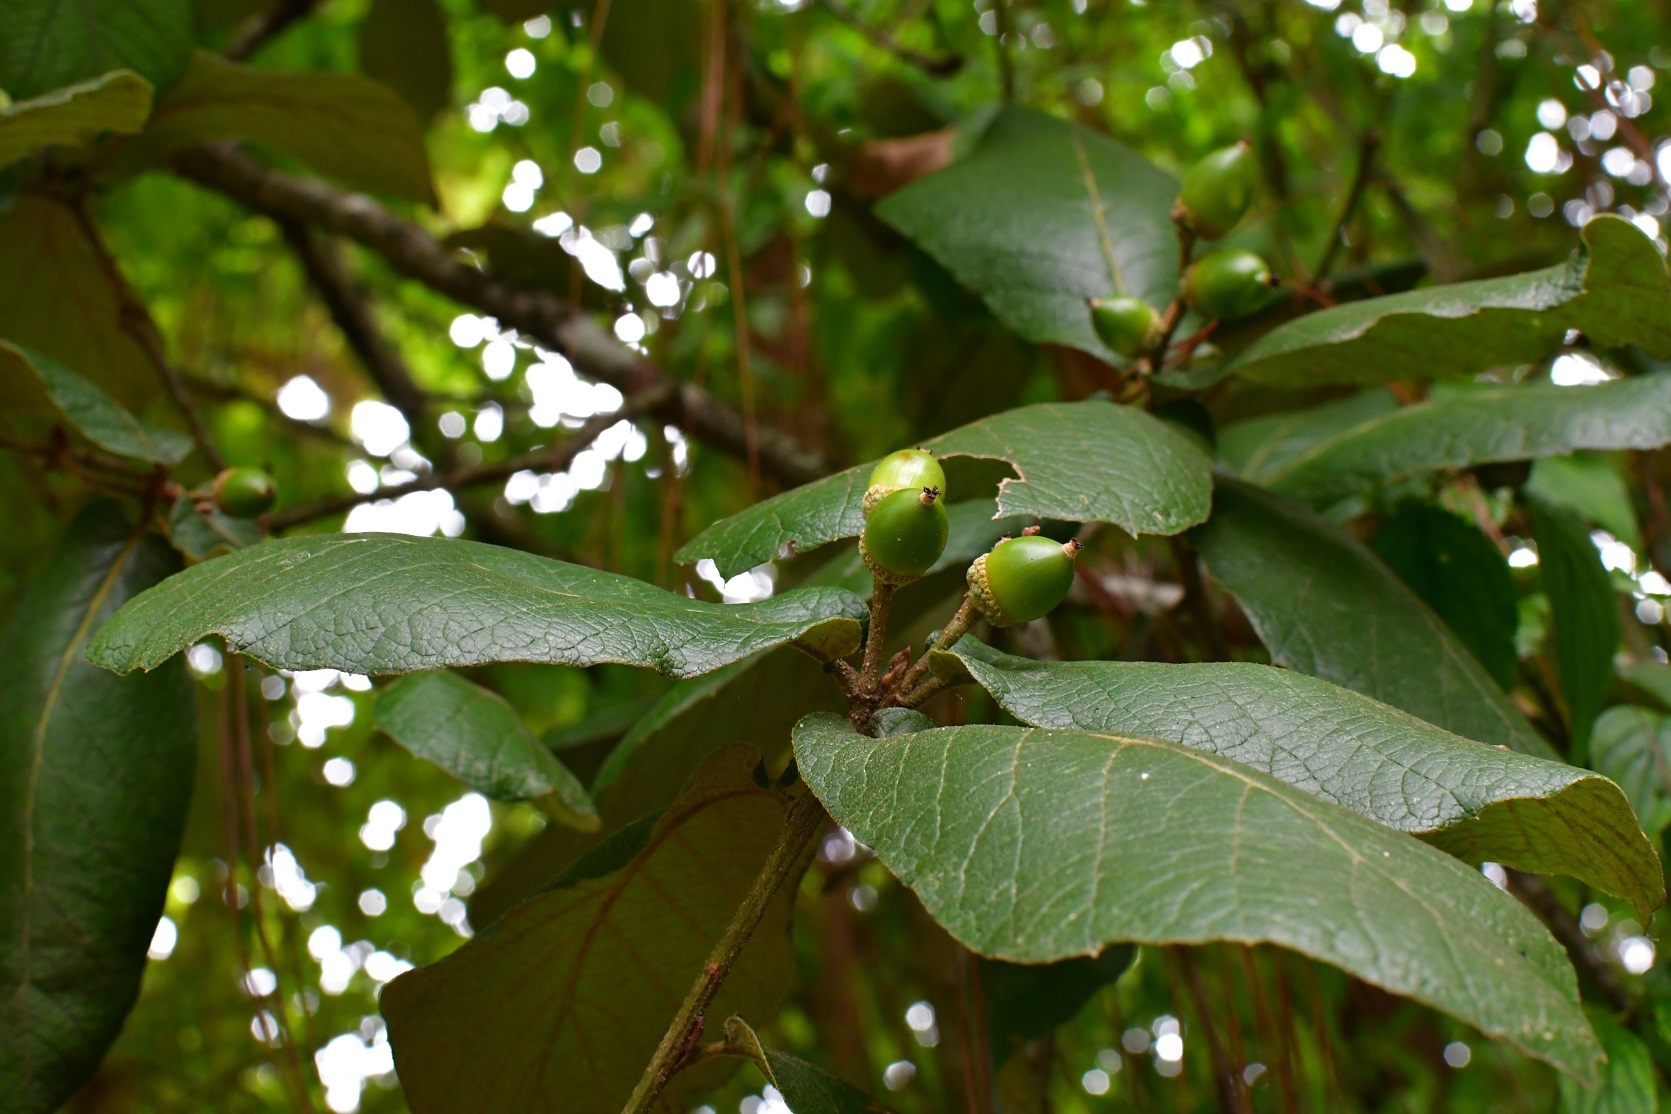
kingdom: Plantae
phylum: Tracheophyta
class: Magnoliopsida
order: Fagales
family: Fagaceae
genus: Quercus
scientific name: Quercus rugosa
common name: Netleaf oak
